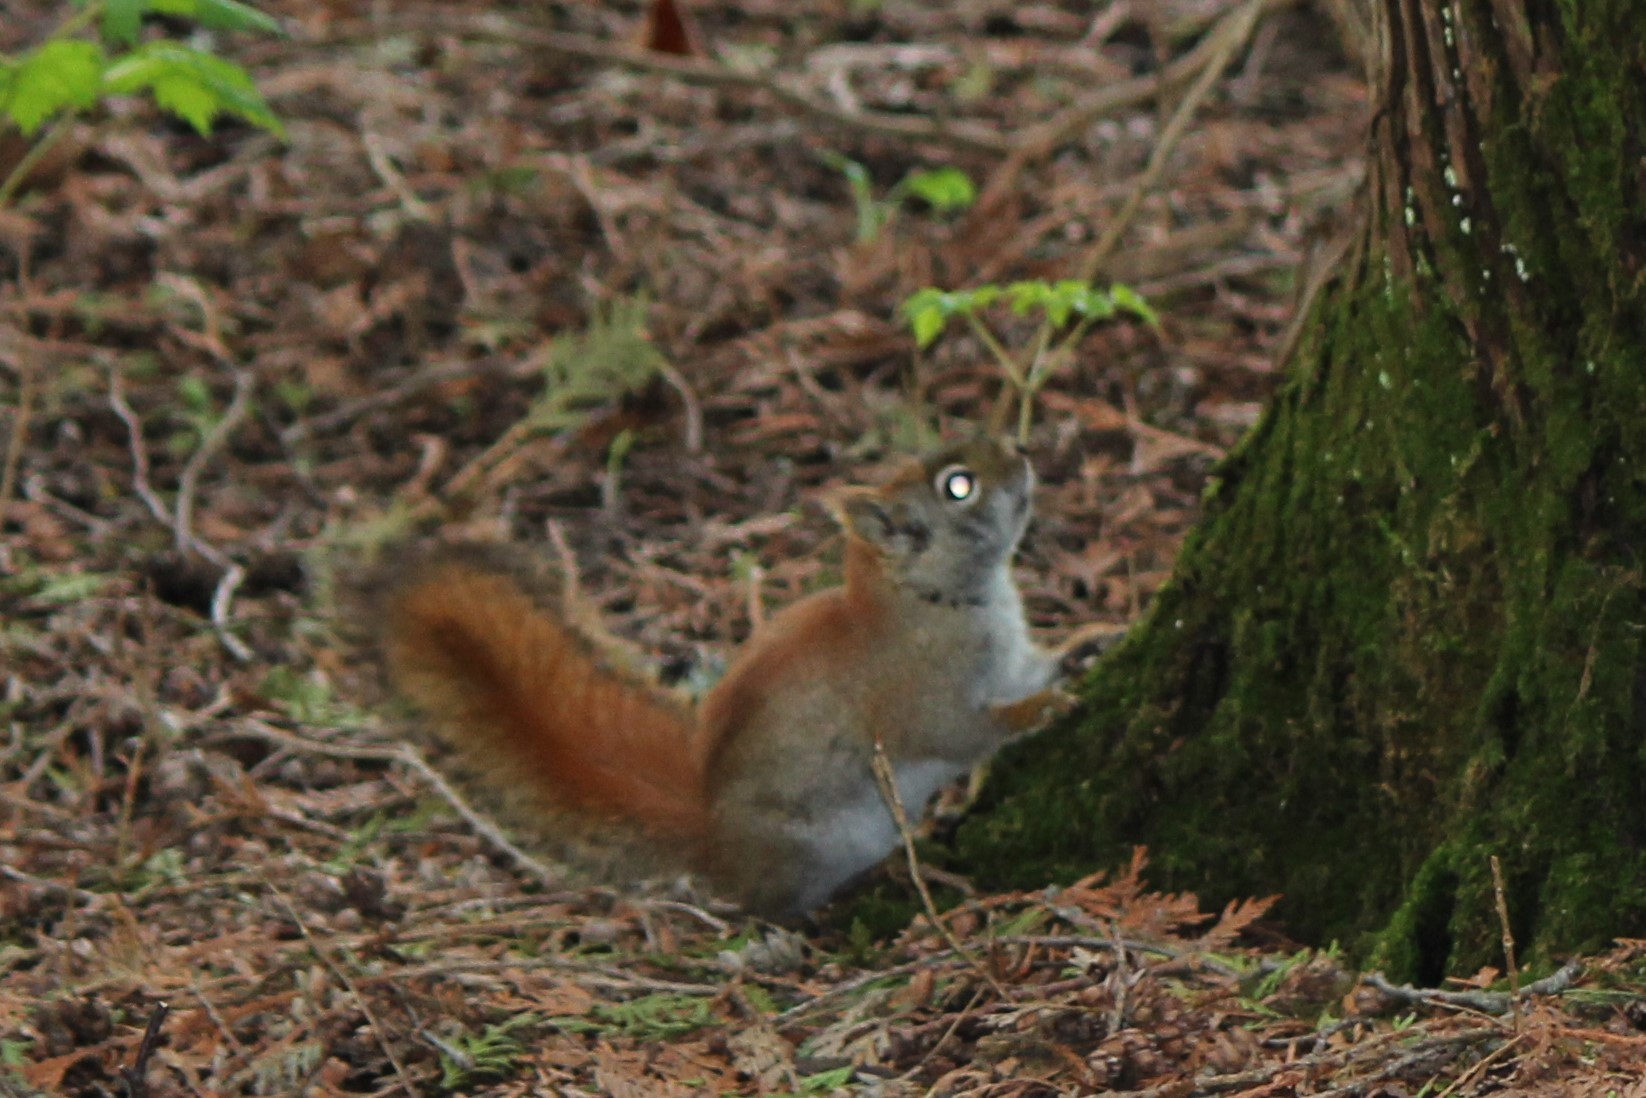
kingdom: Animalia
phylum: Chordata
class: Mammalia
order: Rodentia
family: Sciuridae
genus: Tamiasciurus
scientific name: Tamiasciurus hudsonicus
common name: Red squirrel
